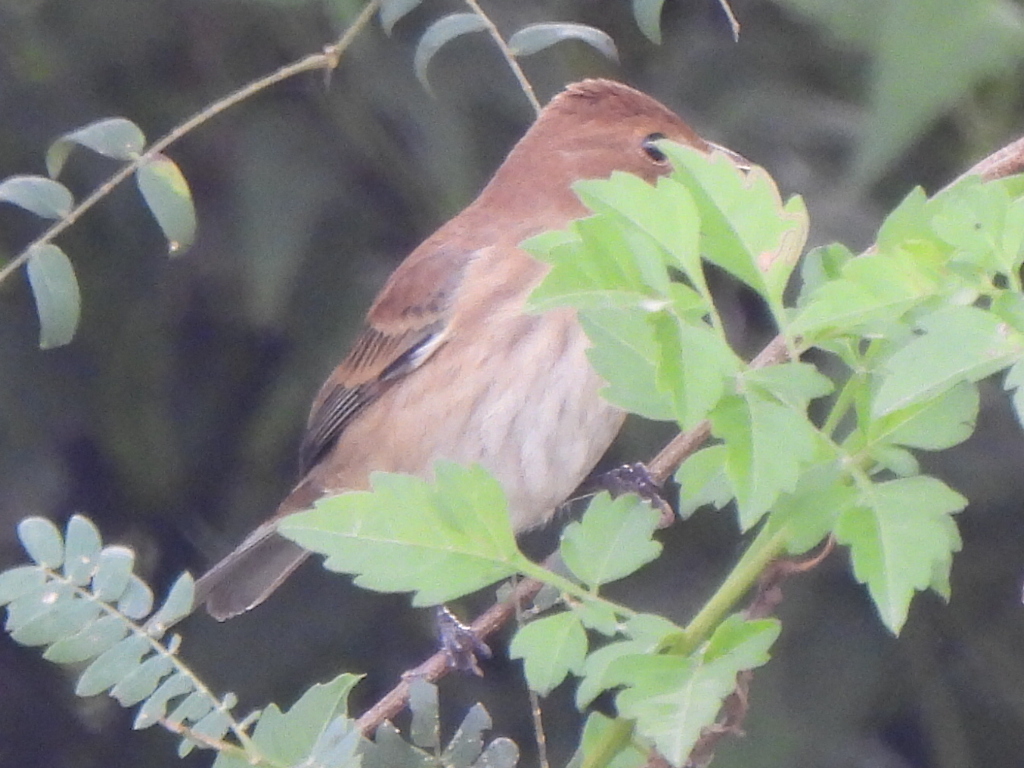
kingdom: Animalia
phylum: Chordata
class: Aves
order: Passeriformes
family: Cardinalidae
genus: Passerina
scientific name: Passerina cyanea
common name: Indigo bunting
